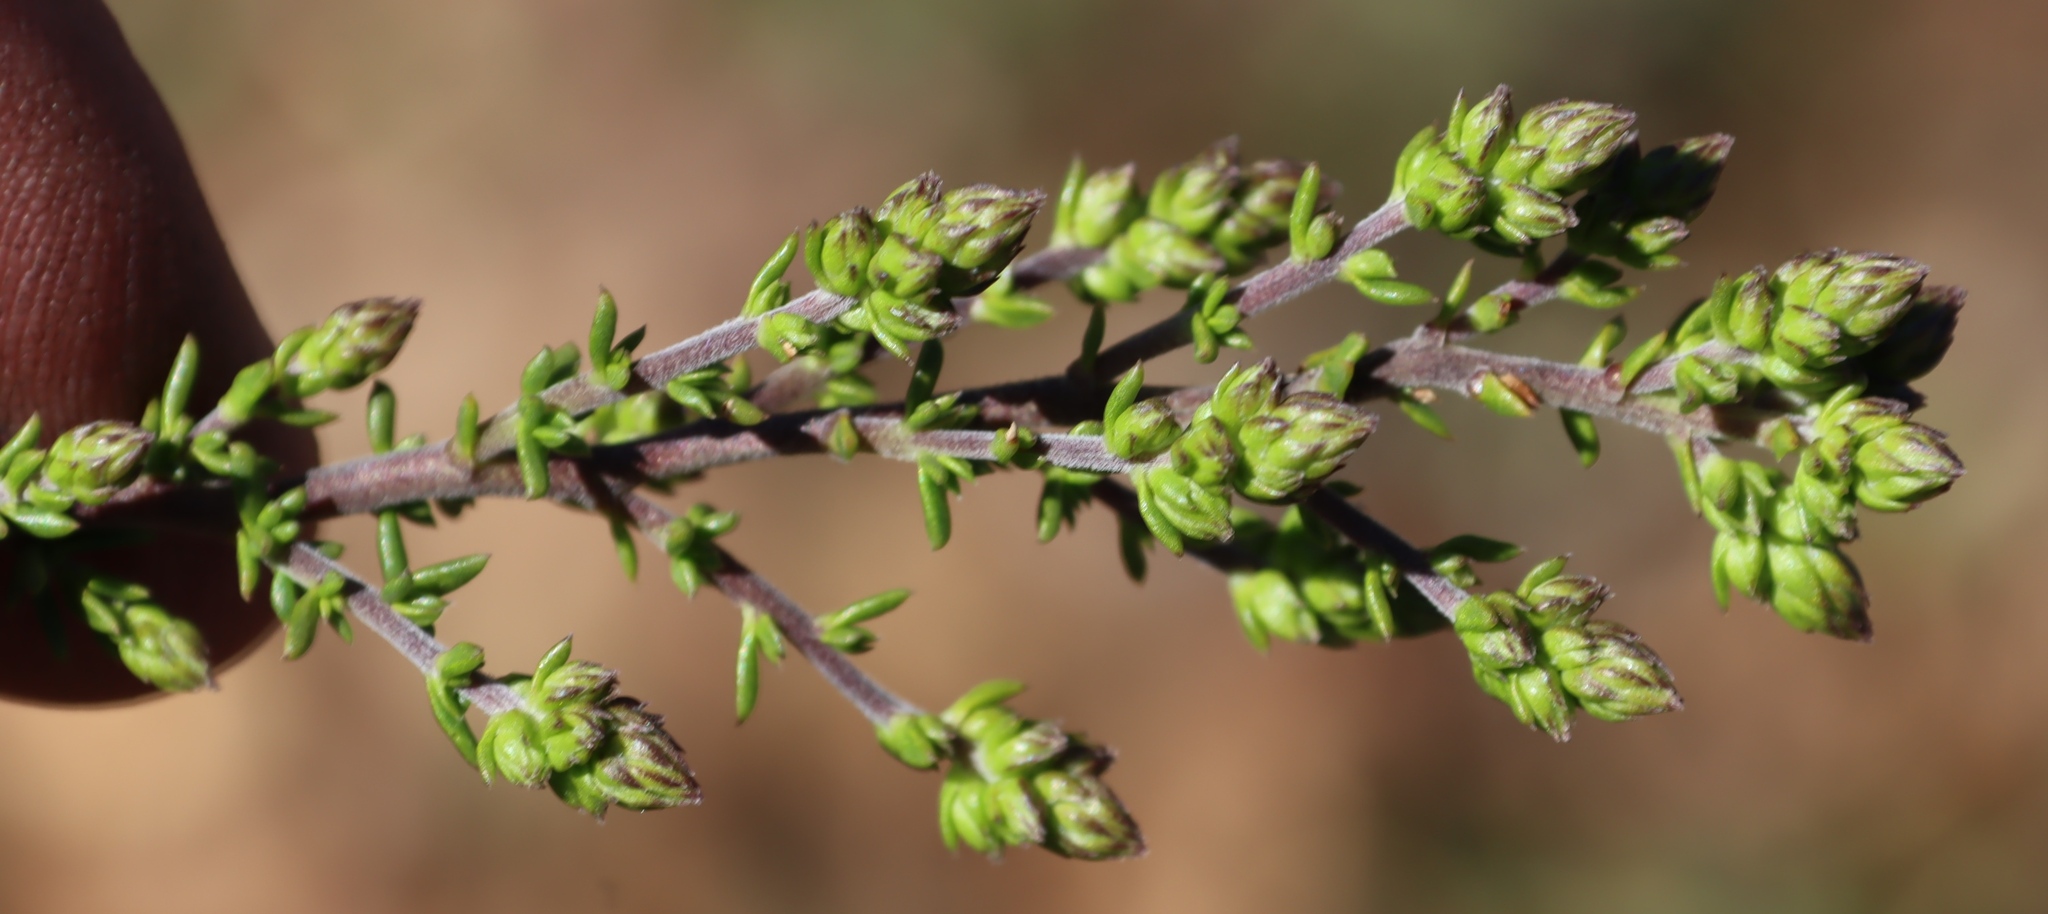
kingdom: Plantae
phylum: Tracheophyta
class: Magnoliopsida
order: Gentianales
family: Rubiaceae
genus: Anthospermum
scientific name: Anthospermum spathulatum
